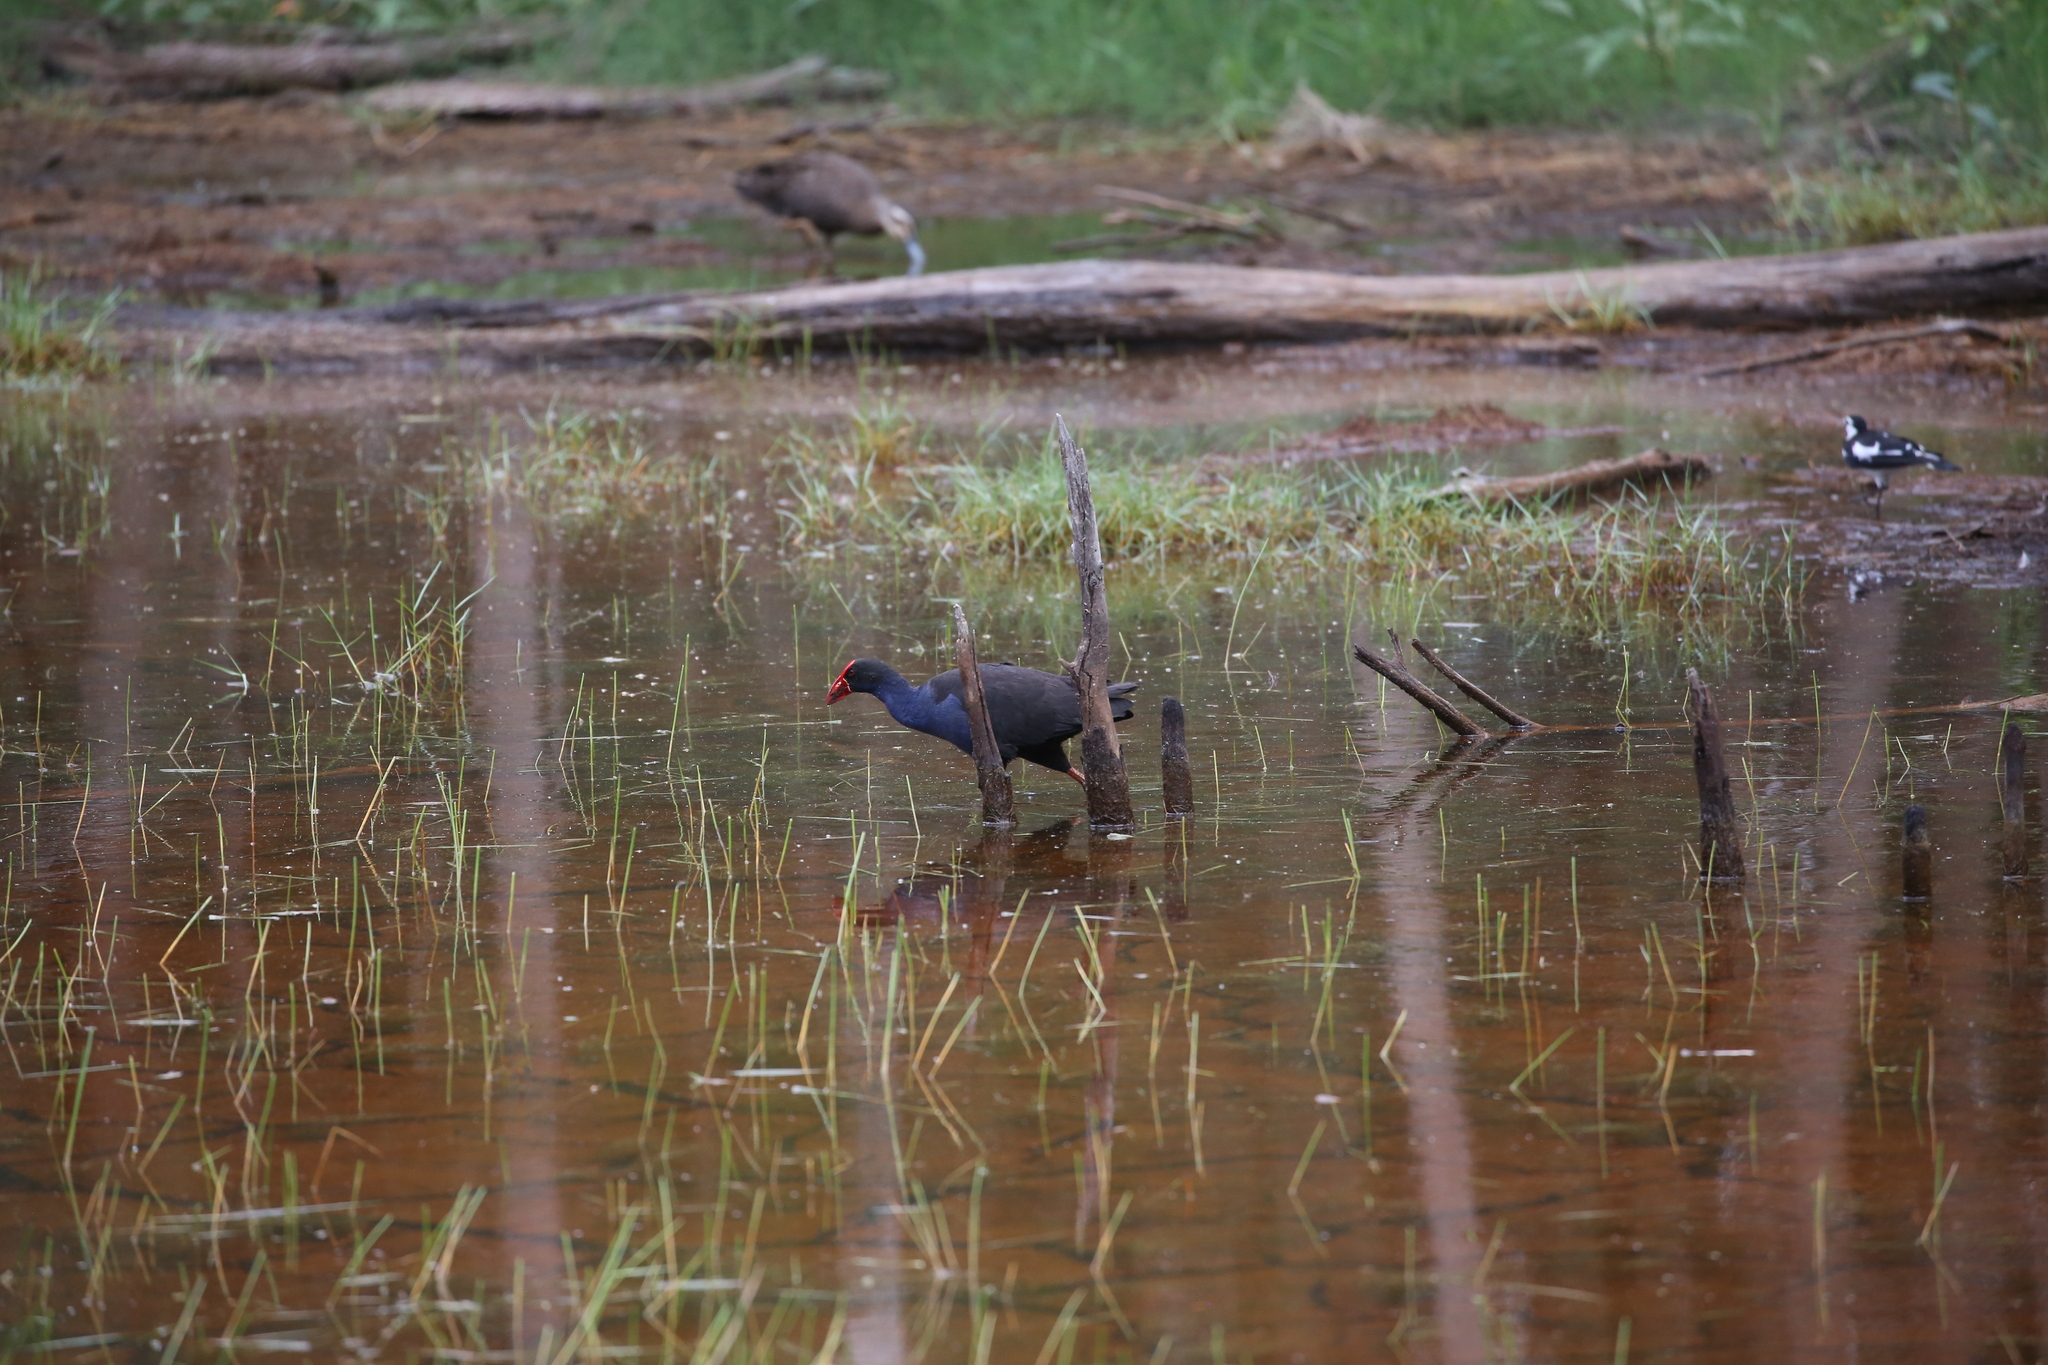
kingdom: Animalia
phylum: Chordata
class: Aves
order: Gruiformes
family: Rallidae
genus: Porphyrio
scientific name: Porphyrio melanotus
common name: Australasian swamphen
